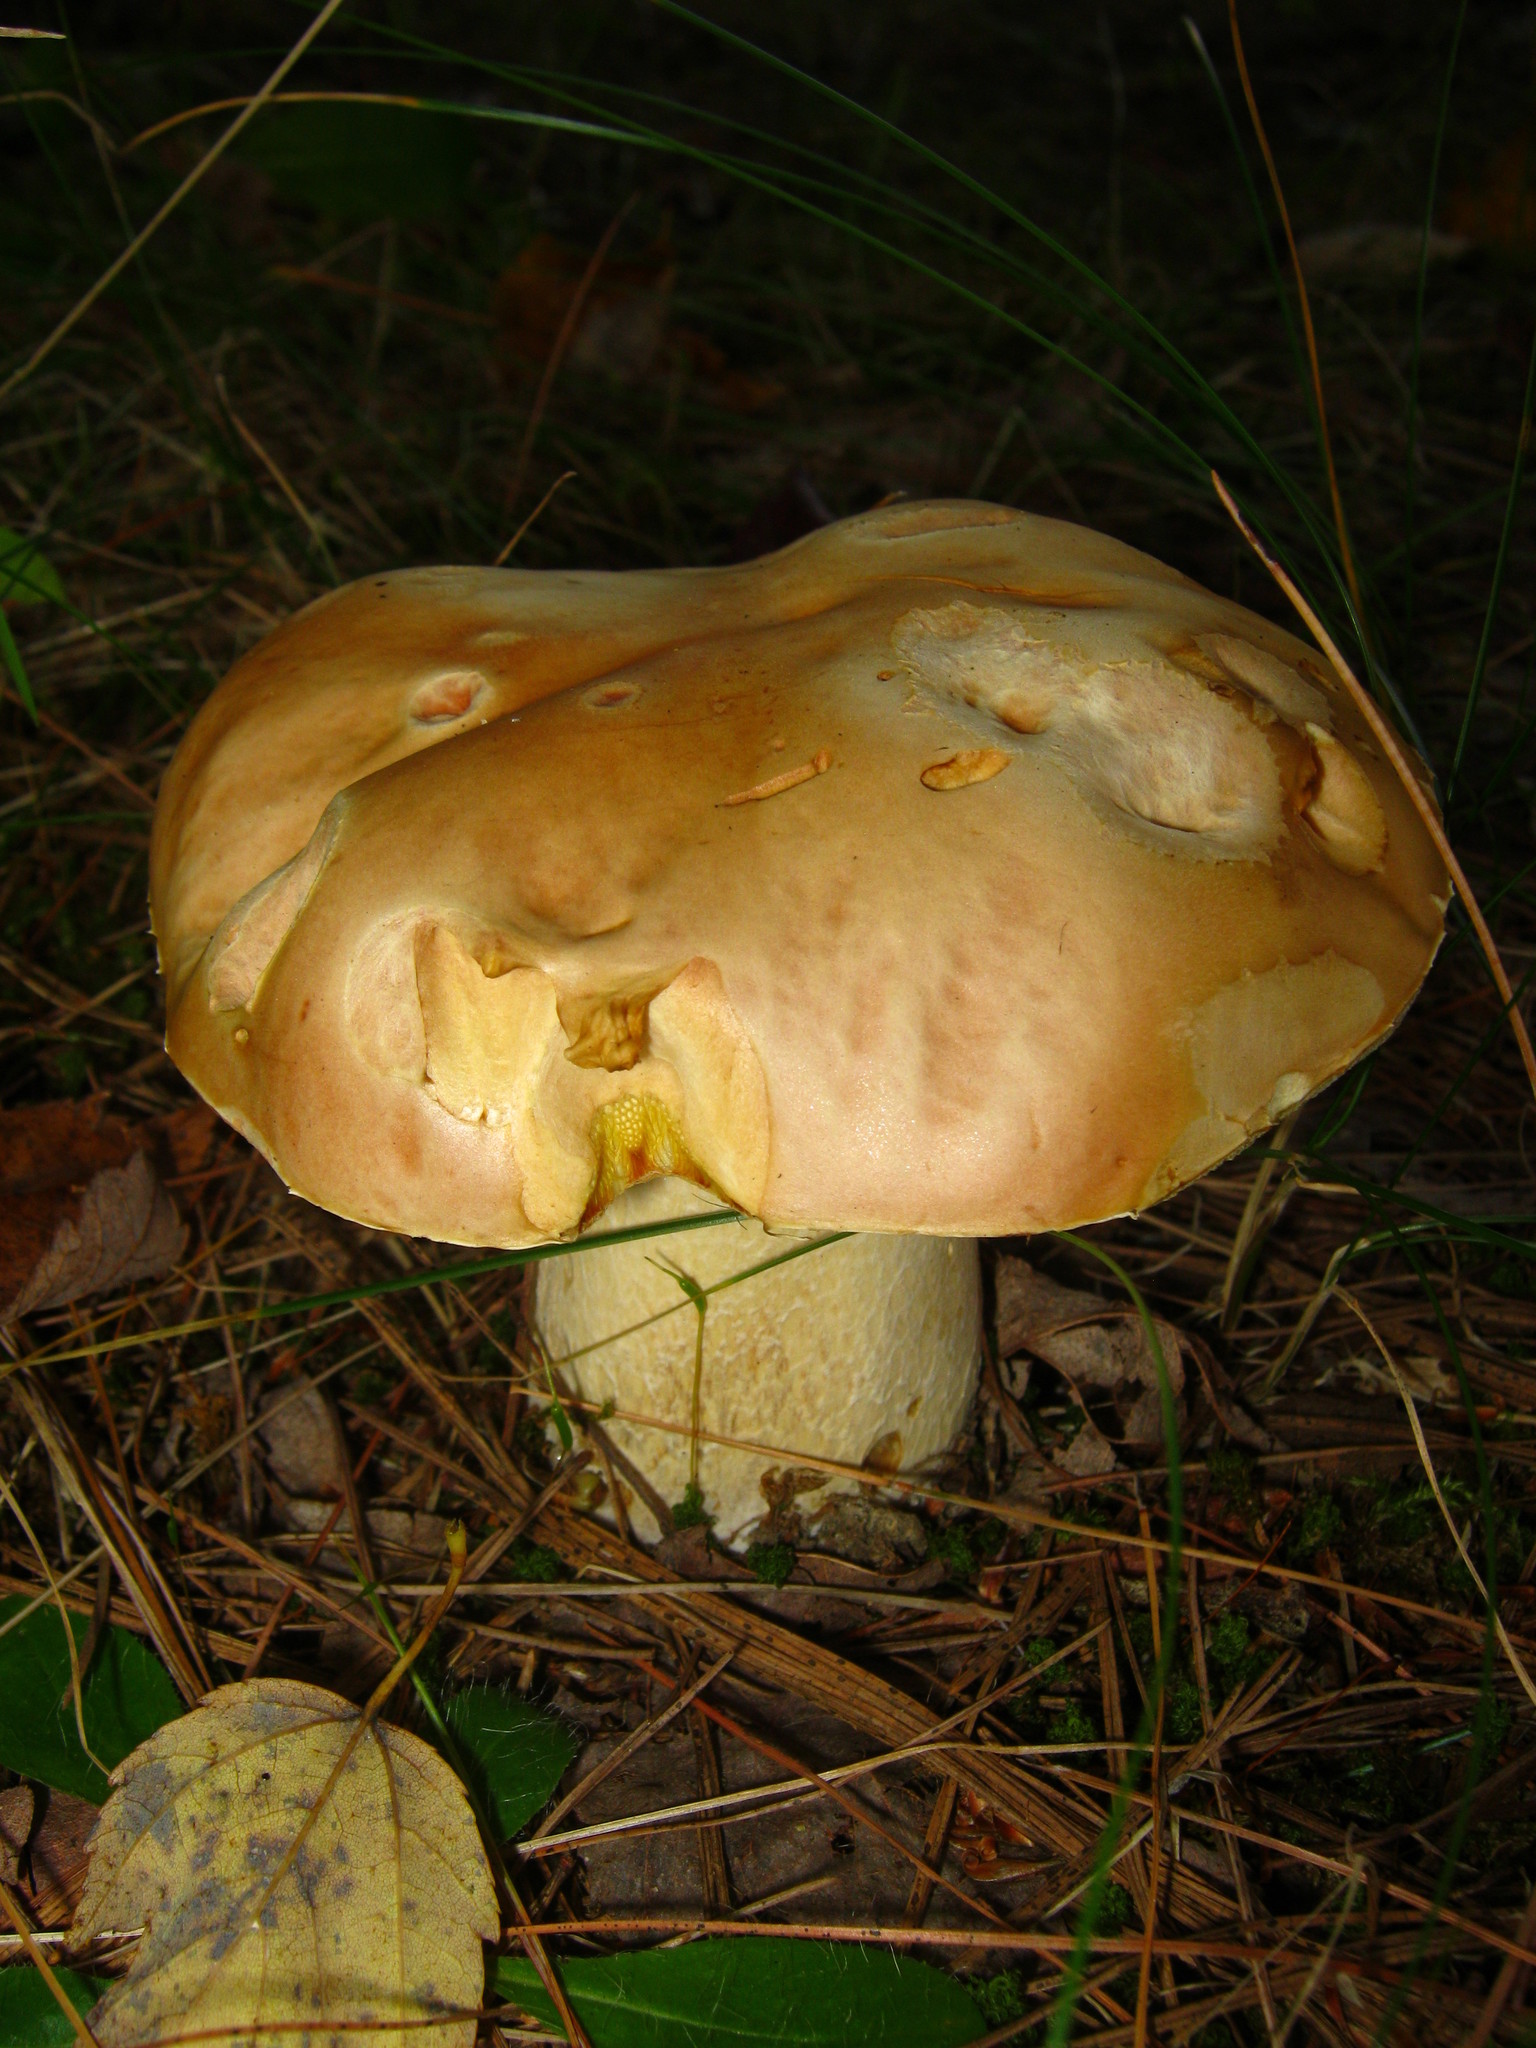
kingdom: Fungi
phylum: Basidiomycota
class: Agaricomycetes
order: Boletales
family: Boletaceae
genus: Boletus
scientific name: Boletus chippewaensis
